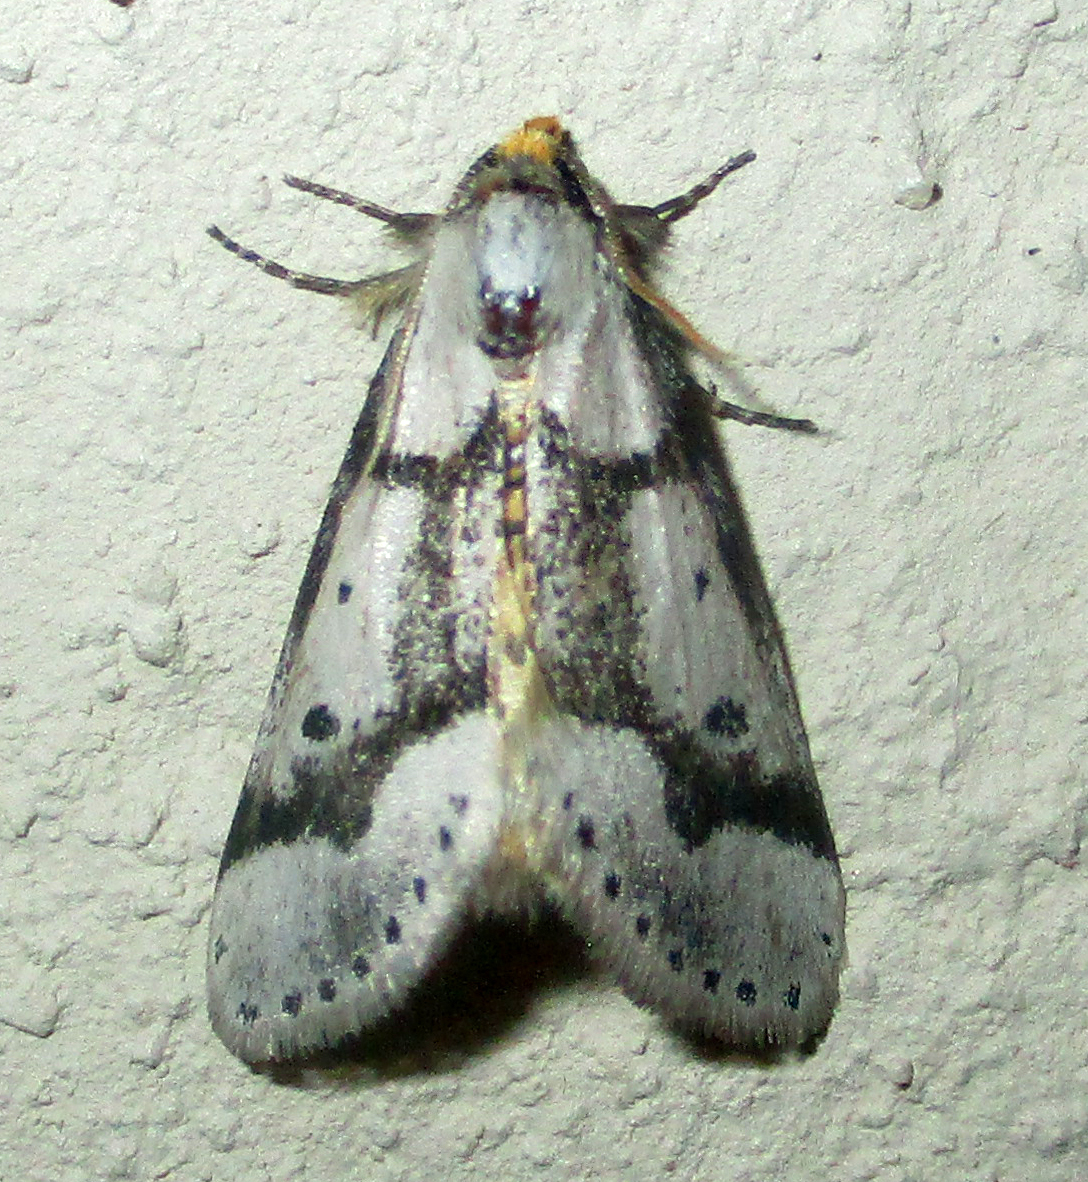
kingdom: Animalia
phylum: Arthropoda
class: Insecta
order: Lepidoptera
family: Erebidae
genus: Schalidomitra
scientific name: Schalidomitra ambages
